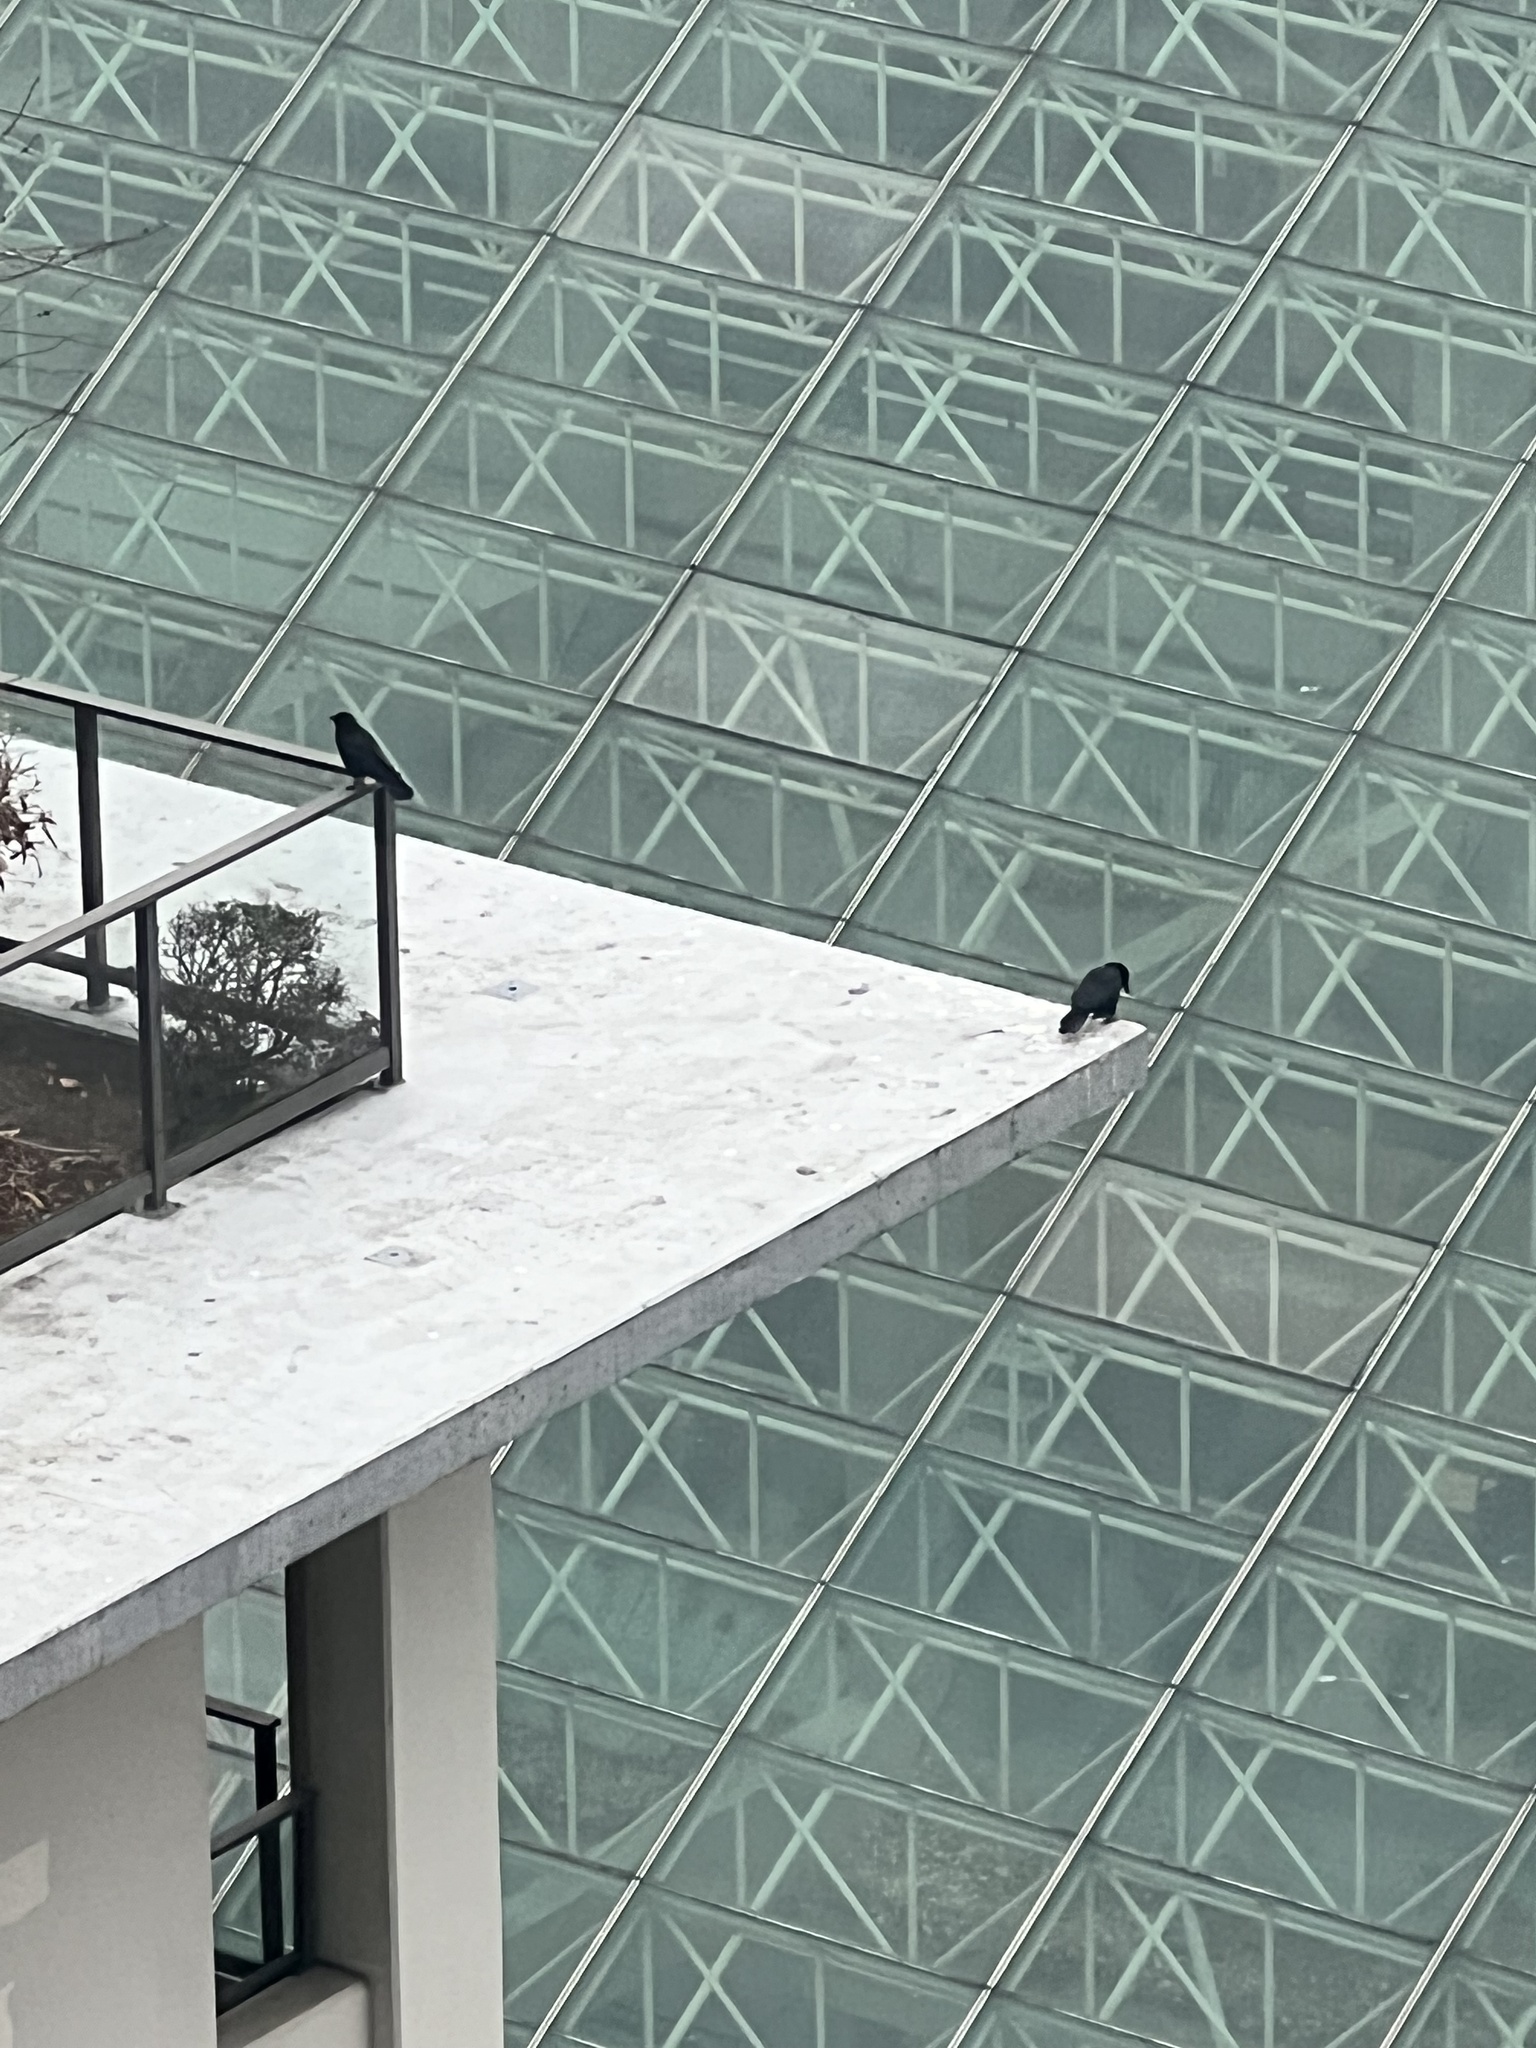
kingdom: Animalia
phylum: Chordata
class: Aves
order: Passeriformes
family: Corvidae
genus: Corvus
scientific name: Corvus brachyrhynchos
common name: American crow
